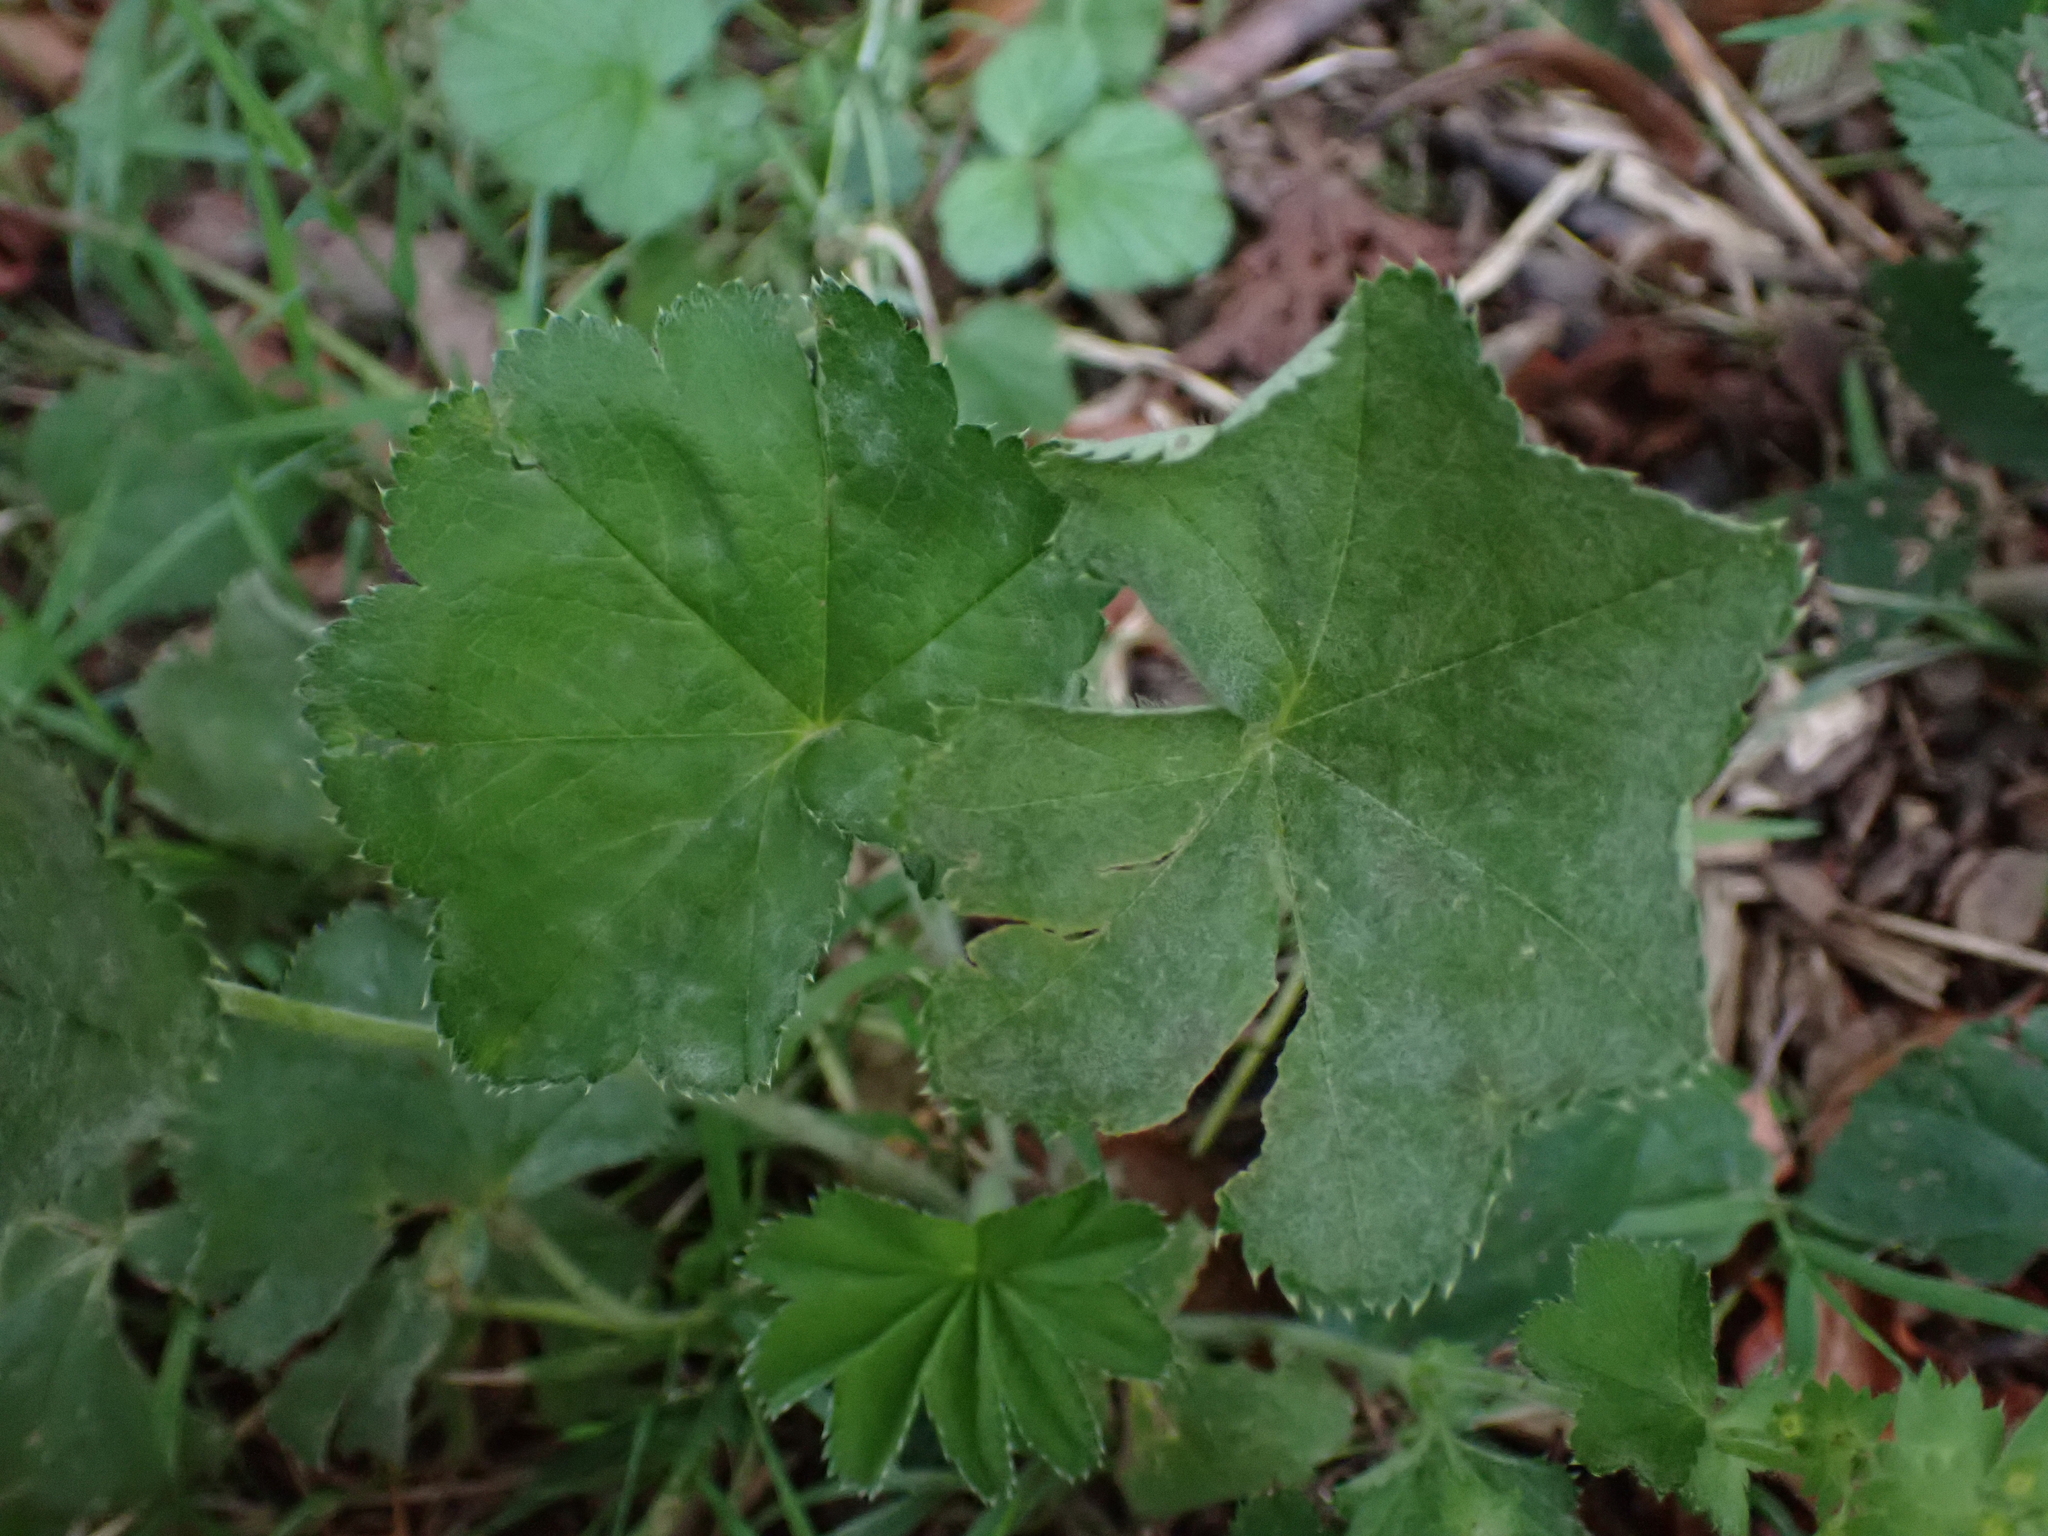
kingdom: Plantae
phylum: Tracheophyta
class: Magnoliopsida
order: Rosales
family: Rosaceae
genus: Alchemilla
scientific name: Alchemilla crinita
